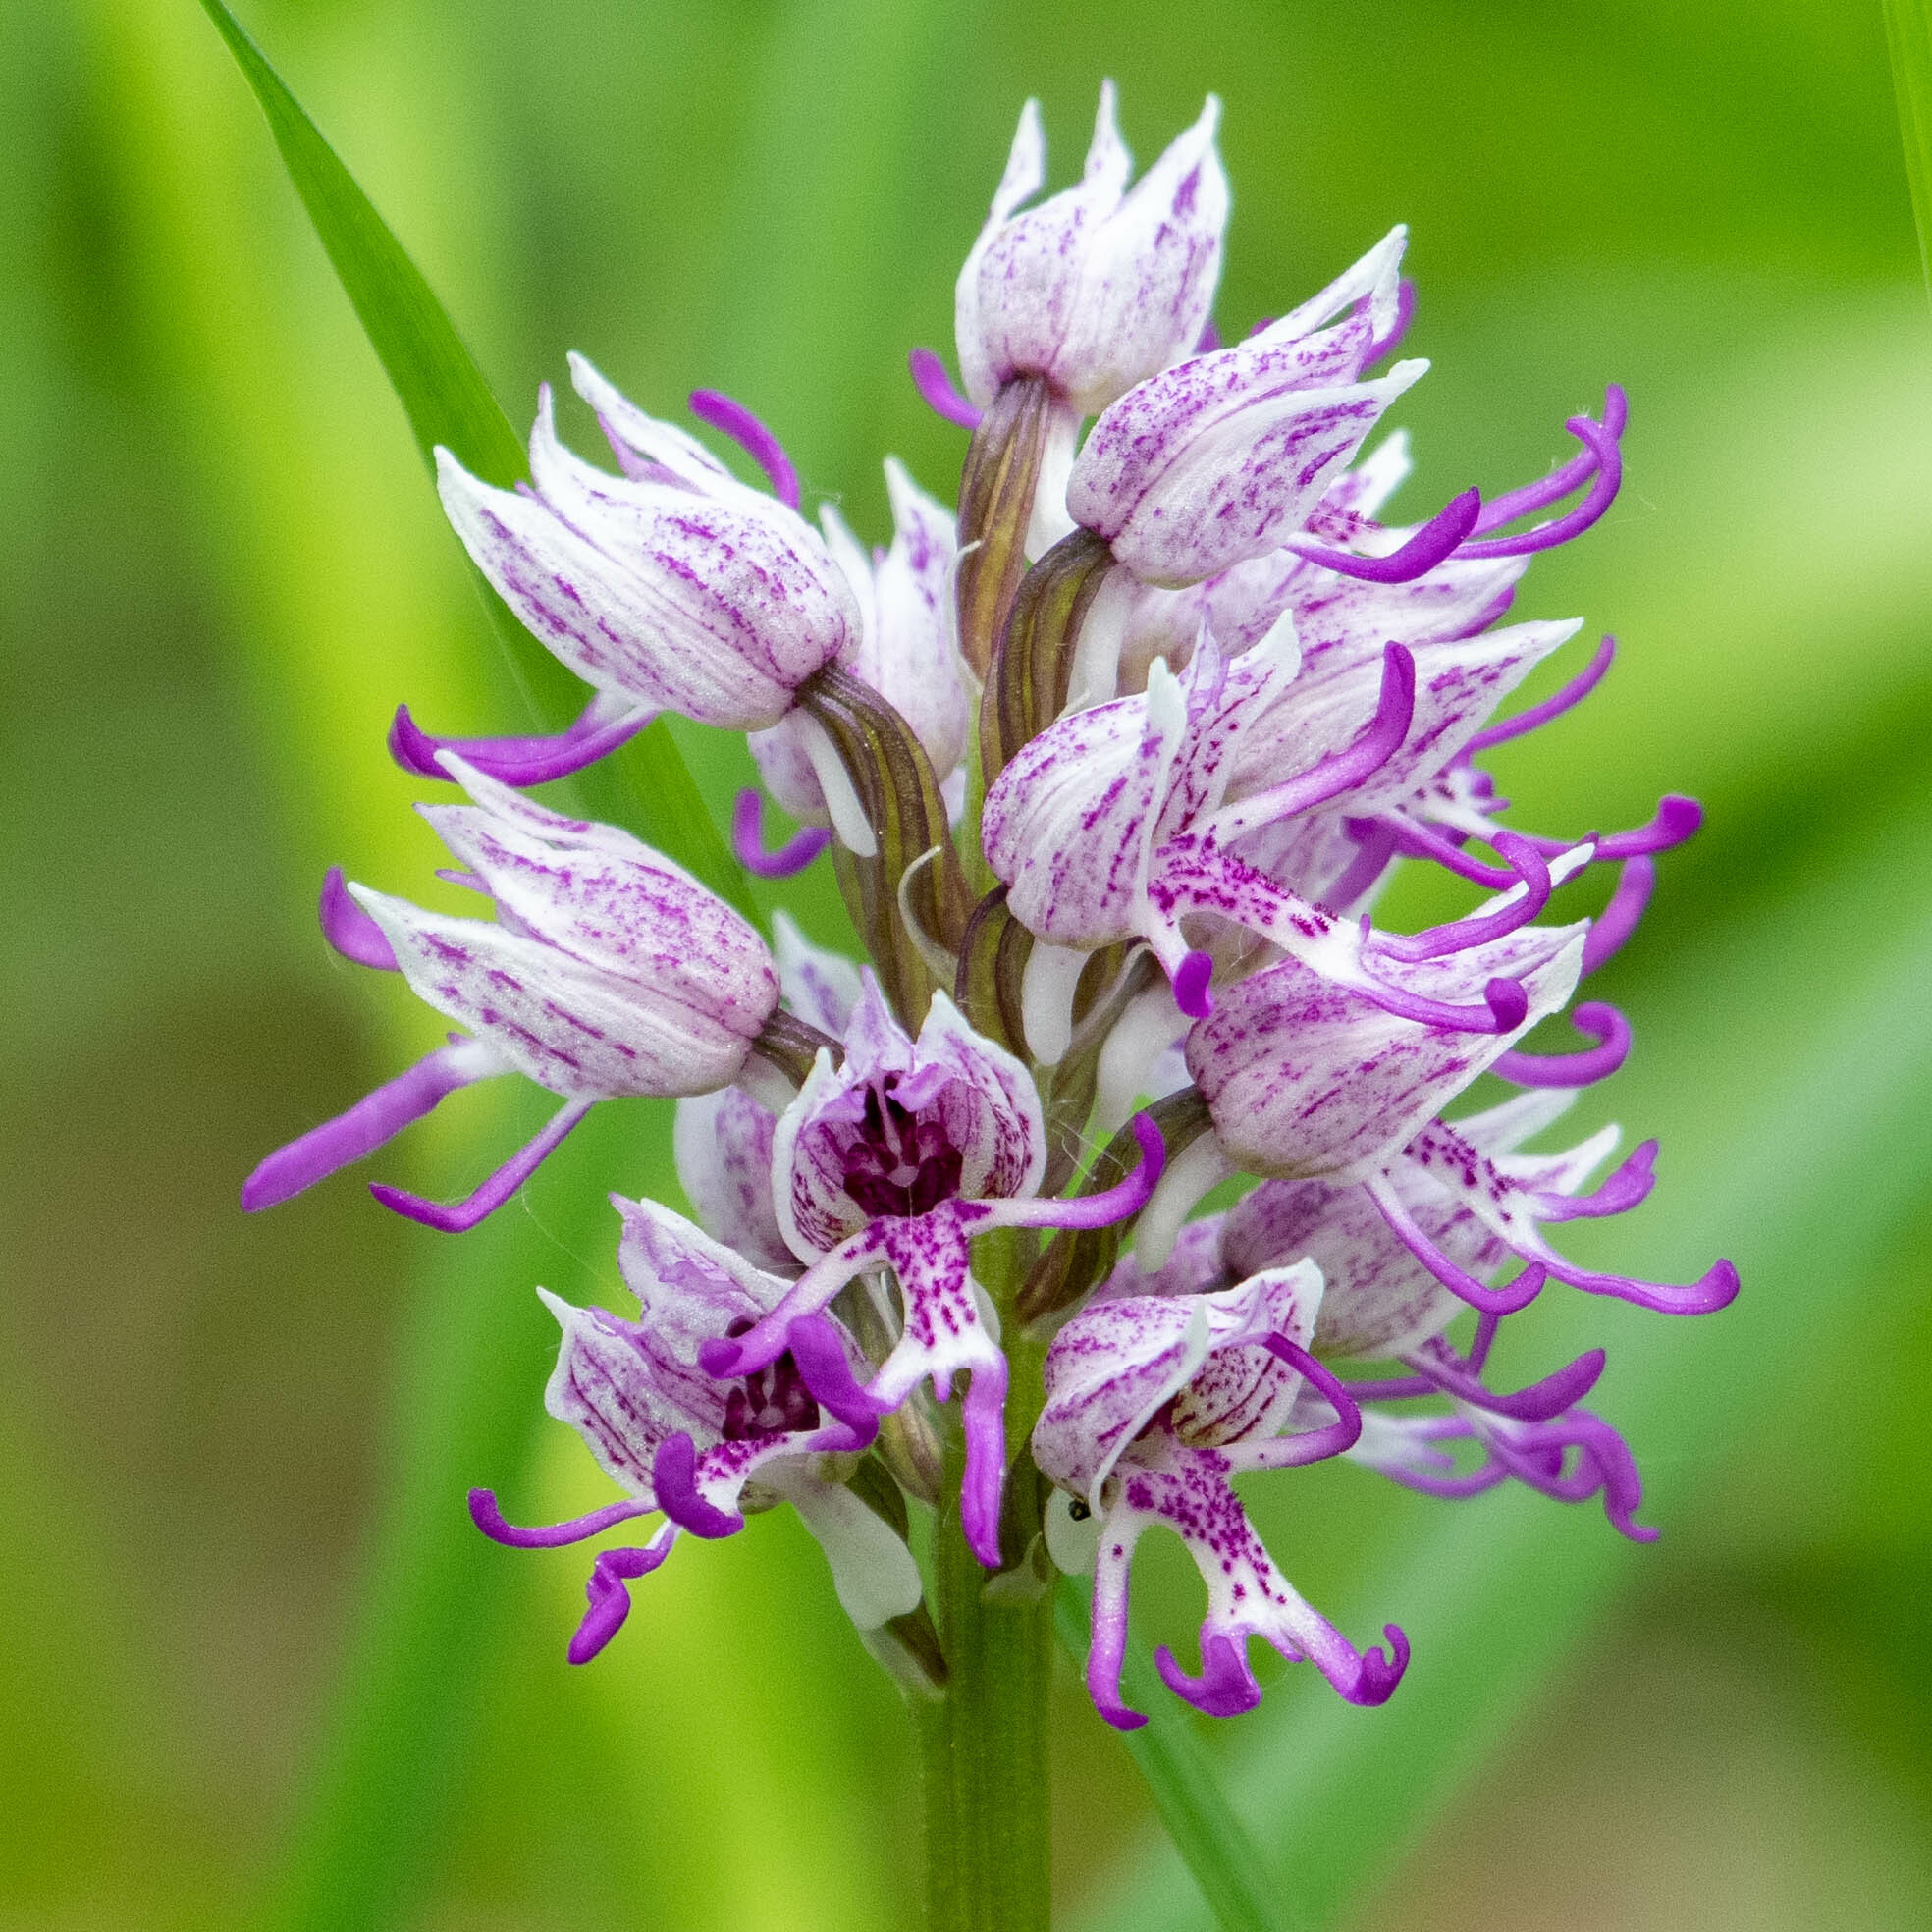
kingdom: Plantae
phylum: Tracheophyta
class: Liliopsida
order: Asparagales
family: Orchidaceae
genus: Orchis
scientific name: Orchis simia
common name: Monkey orchid
